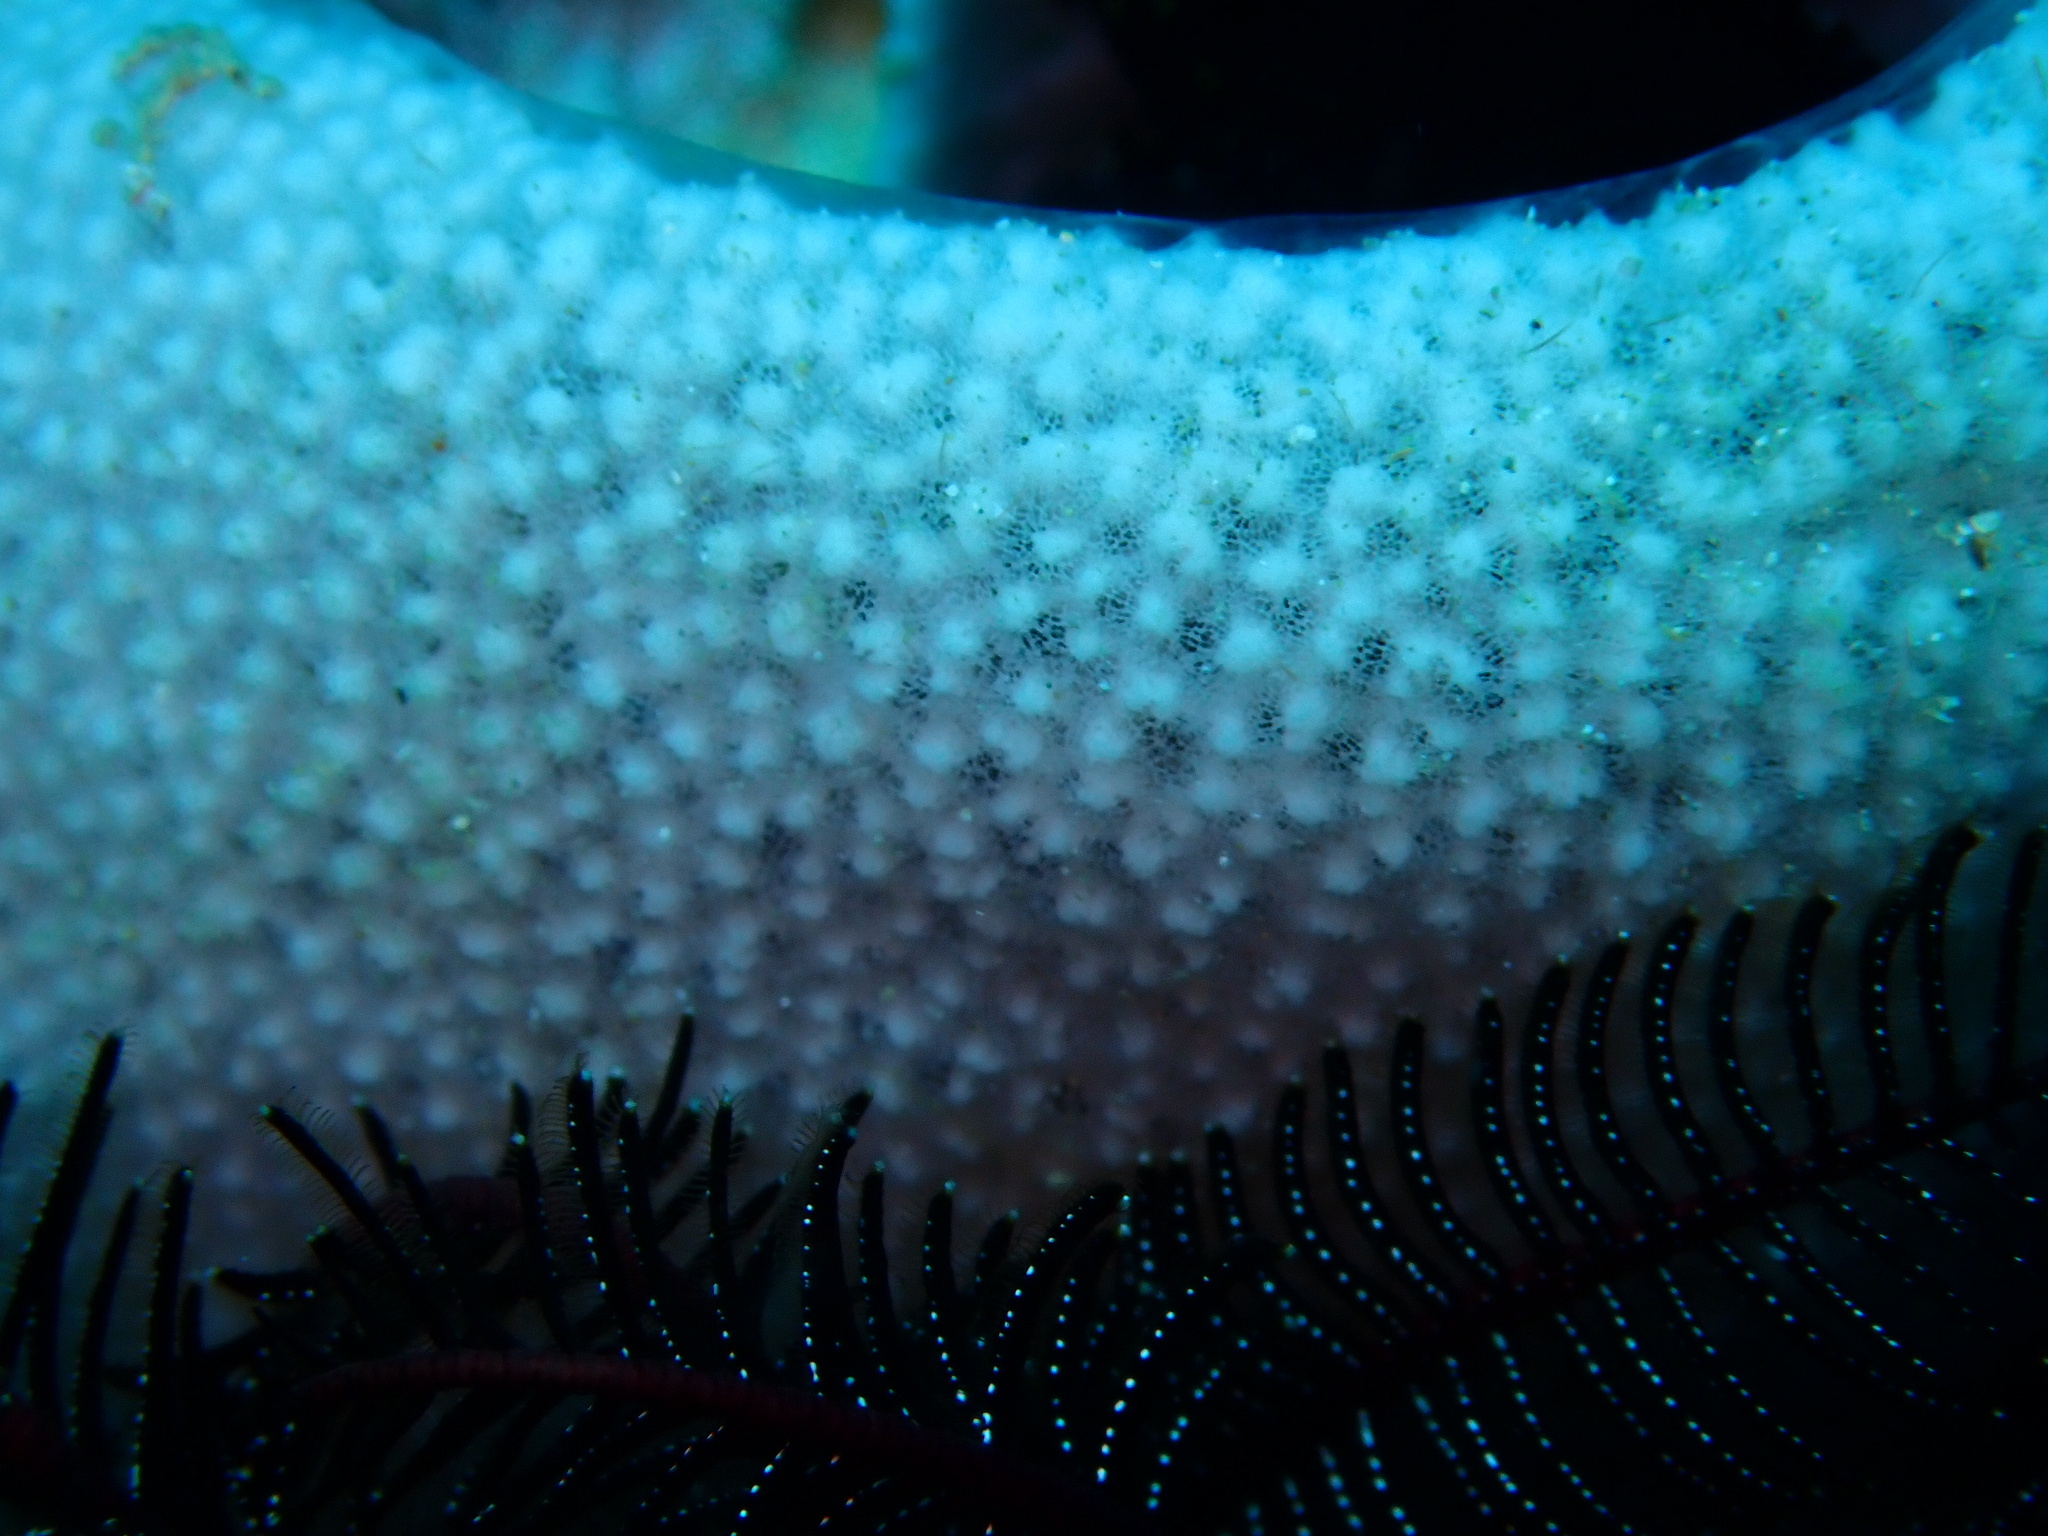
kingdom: Animalia
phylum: Porifera
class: Demospongiae
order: Haplosclerida
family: Niphatidae
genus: Niphates
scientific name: Niphates olemda
